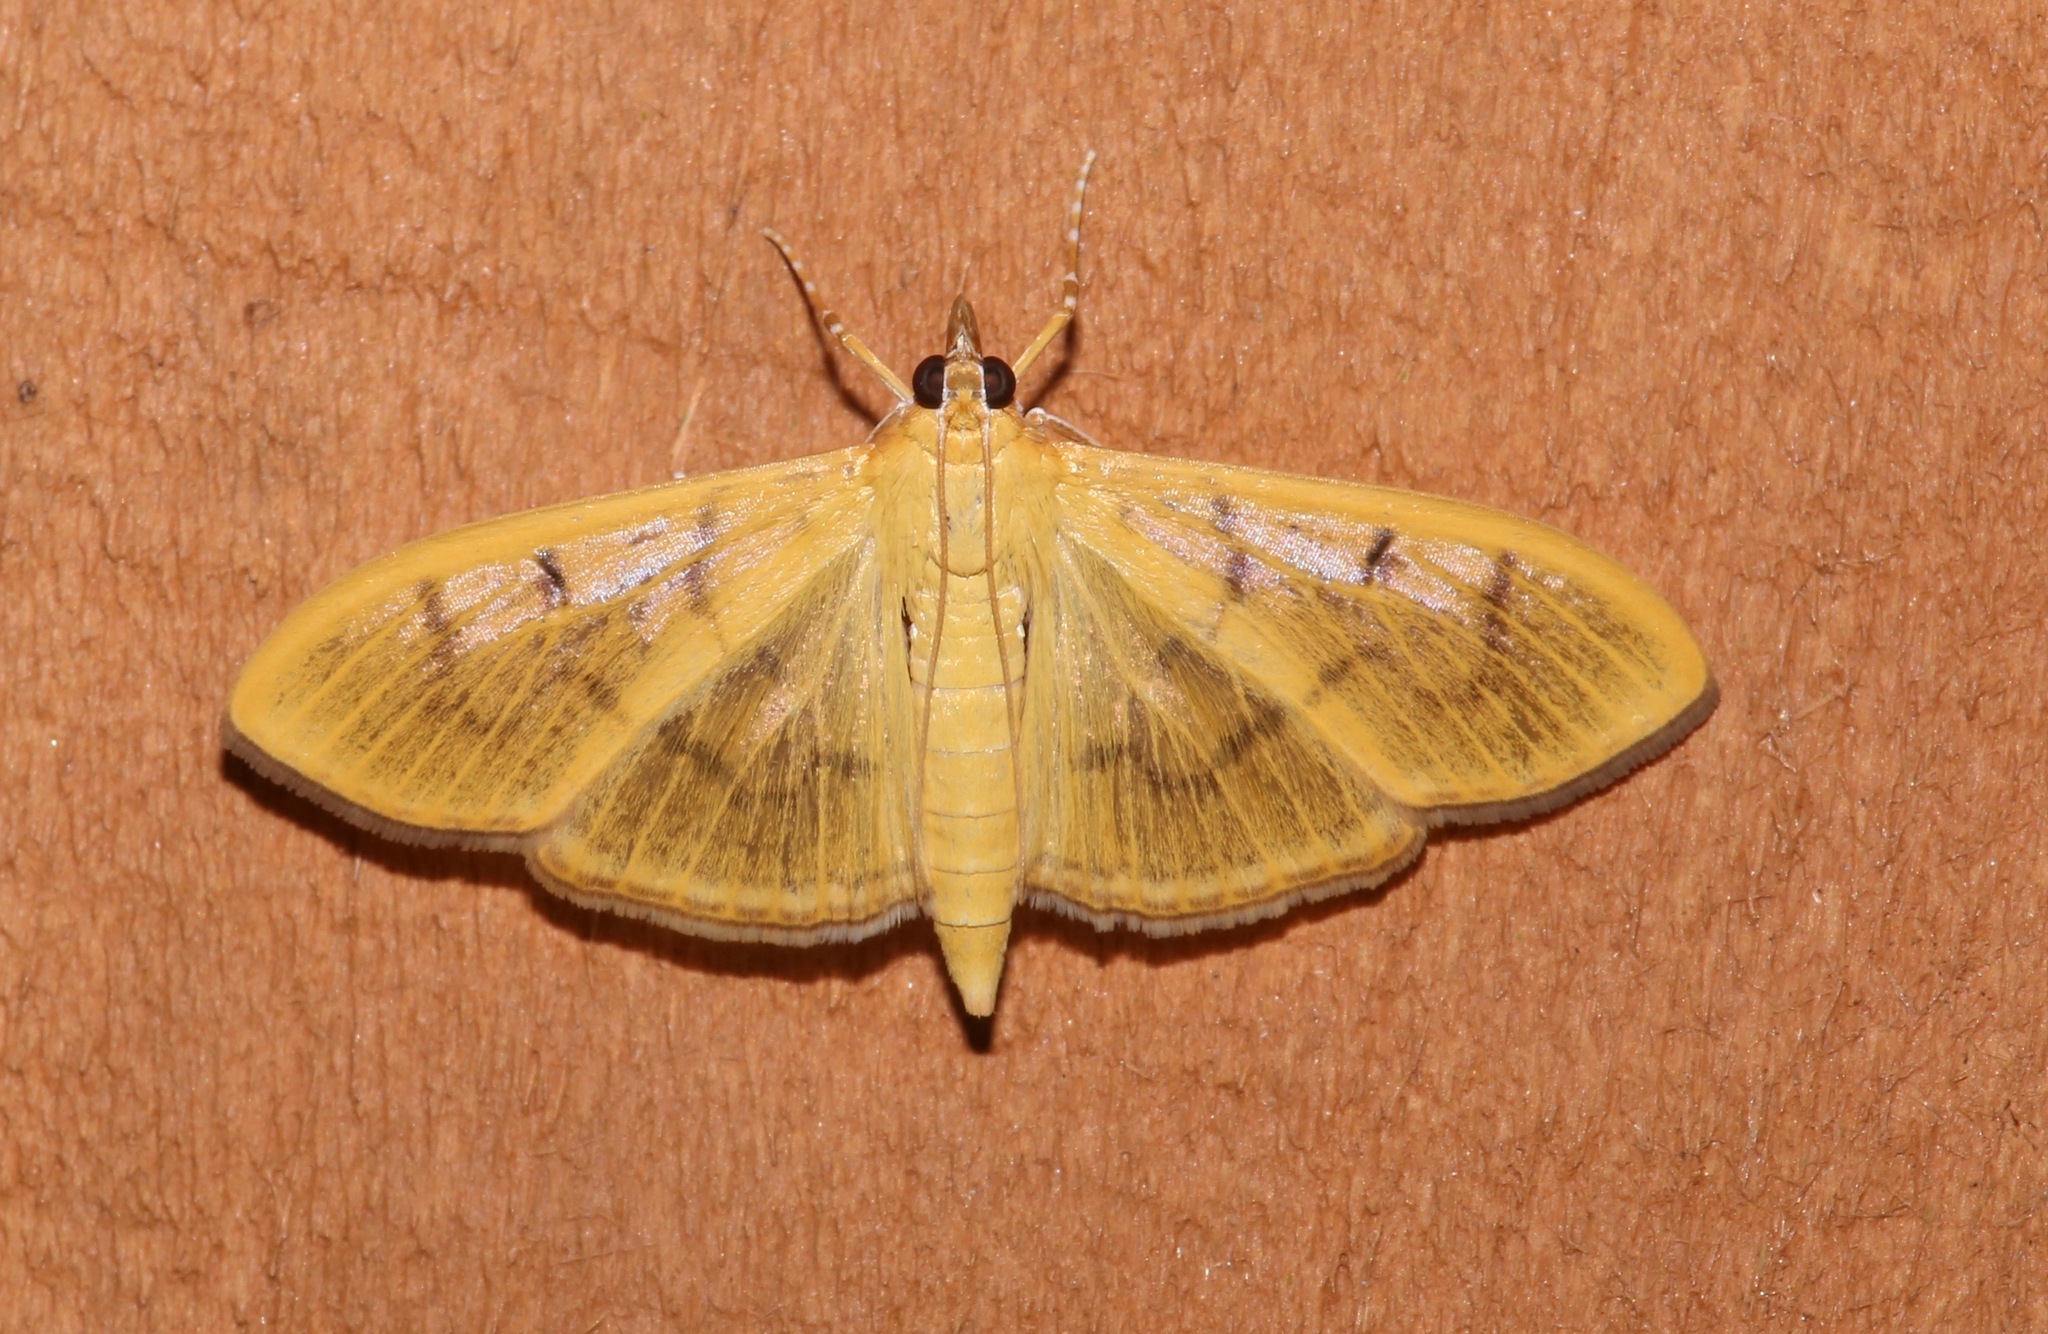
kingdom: Animalia
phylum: Arthropoda
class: Insecta
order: Lepidoptera
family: Crambidae
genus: Condylorrhiza
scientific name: Condylorrhiza vestigialis
